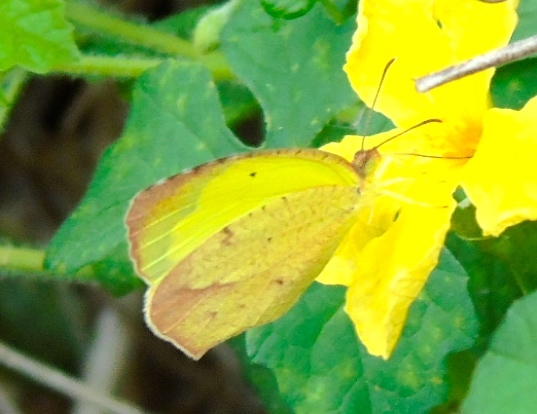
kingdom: Animalia
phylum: Arthropoda
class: Insecta
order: Lepidoptera
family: Pieridae
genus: Abaeis
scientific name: Abaeis boisduvaliana
